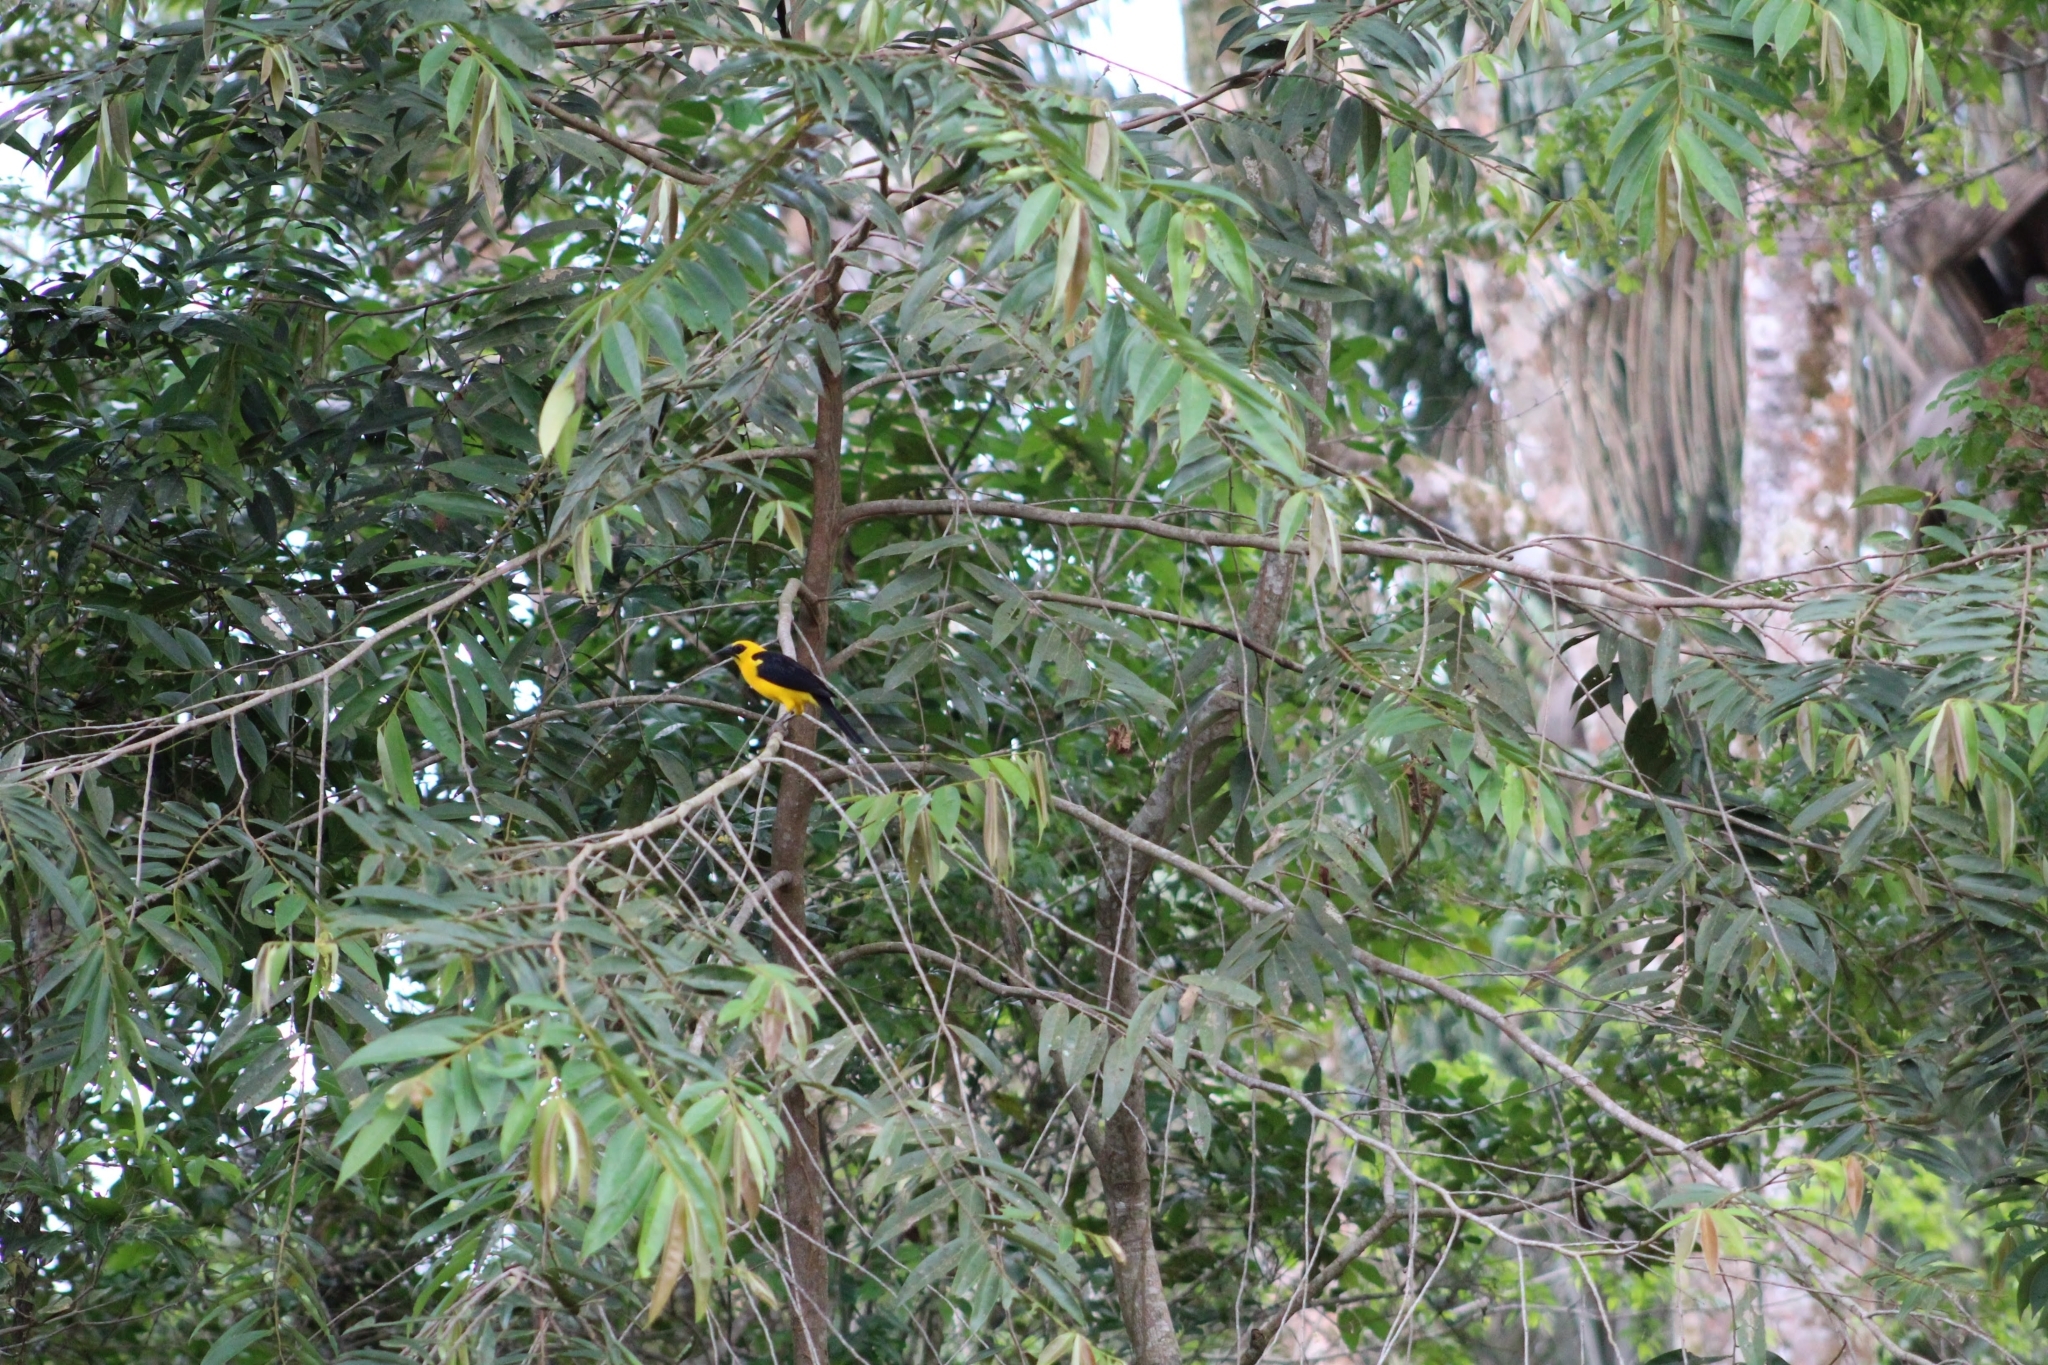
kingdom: Animalia
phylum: Chordata
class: Aves
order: Passeriformes
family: Icteridae
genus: Gymnomystax
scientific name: Gymnomystax mexicanus
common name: Oriole blackbird
